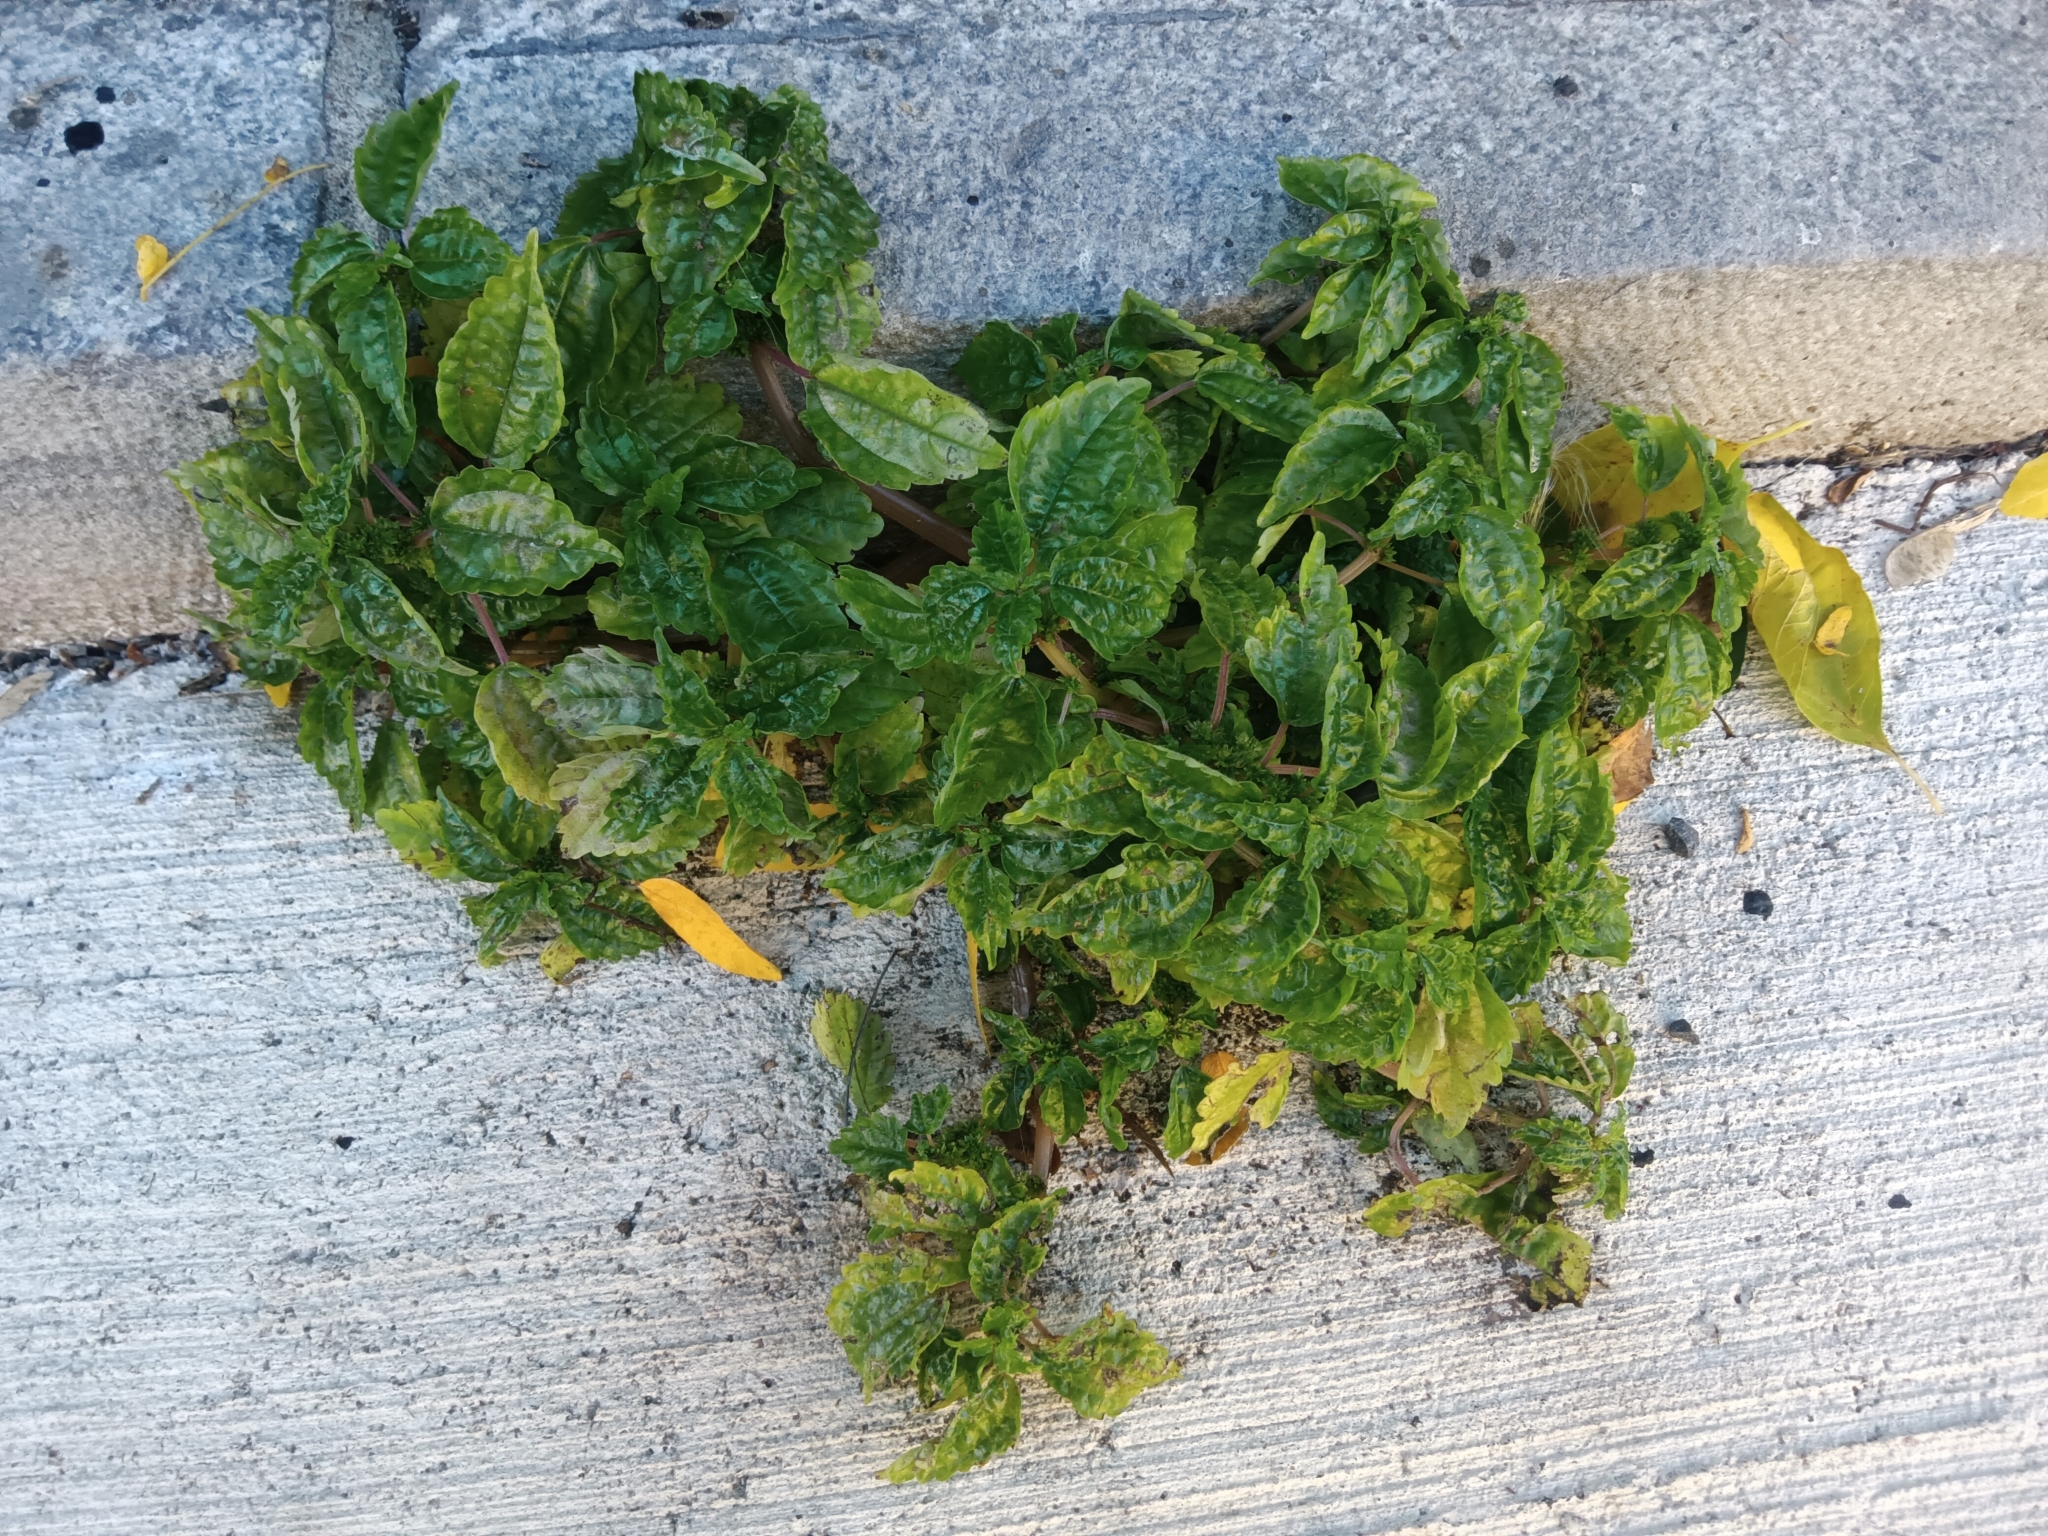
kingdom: Plantae
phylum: Tracheophyta
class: Magnoliopsida
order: Rosales
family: Urticaceae
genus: Pilea
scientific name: Pilea pumila
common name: Clearweed
